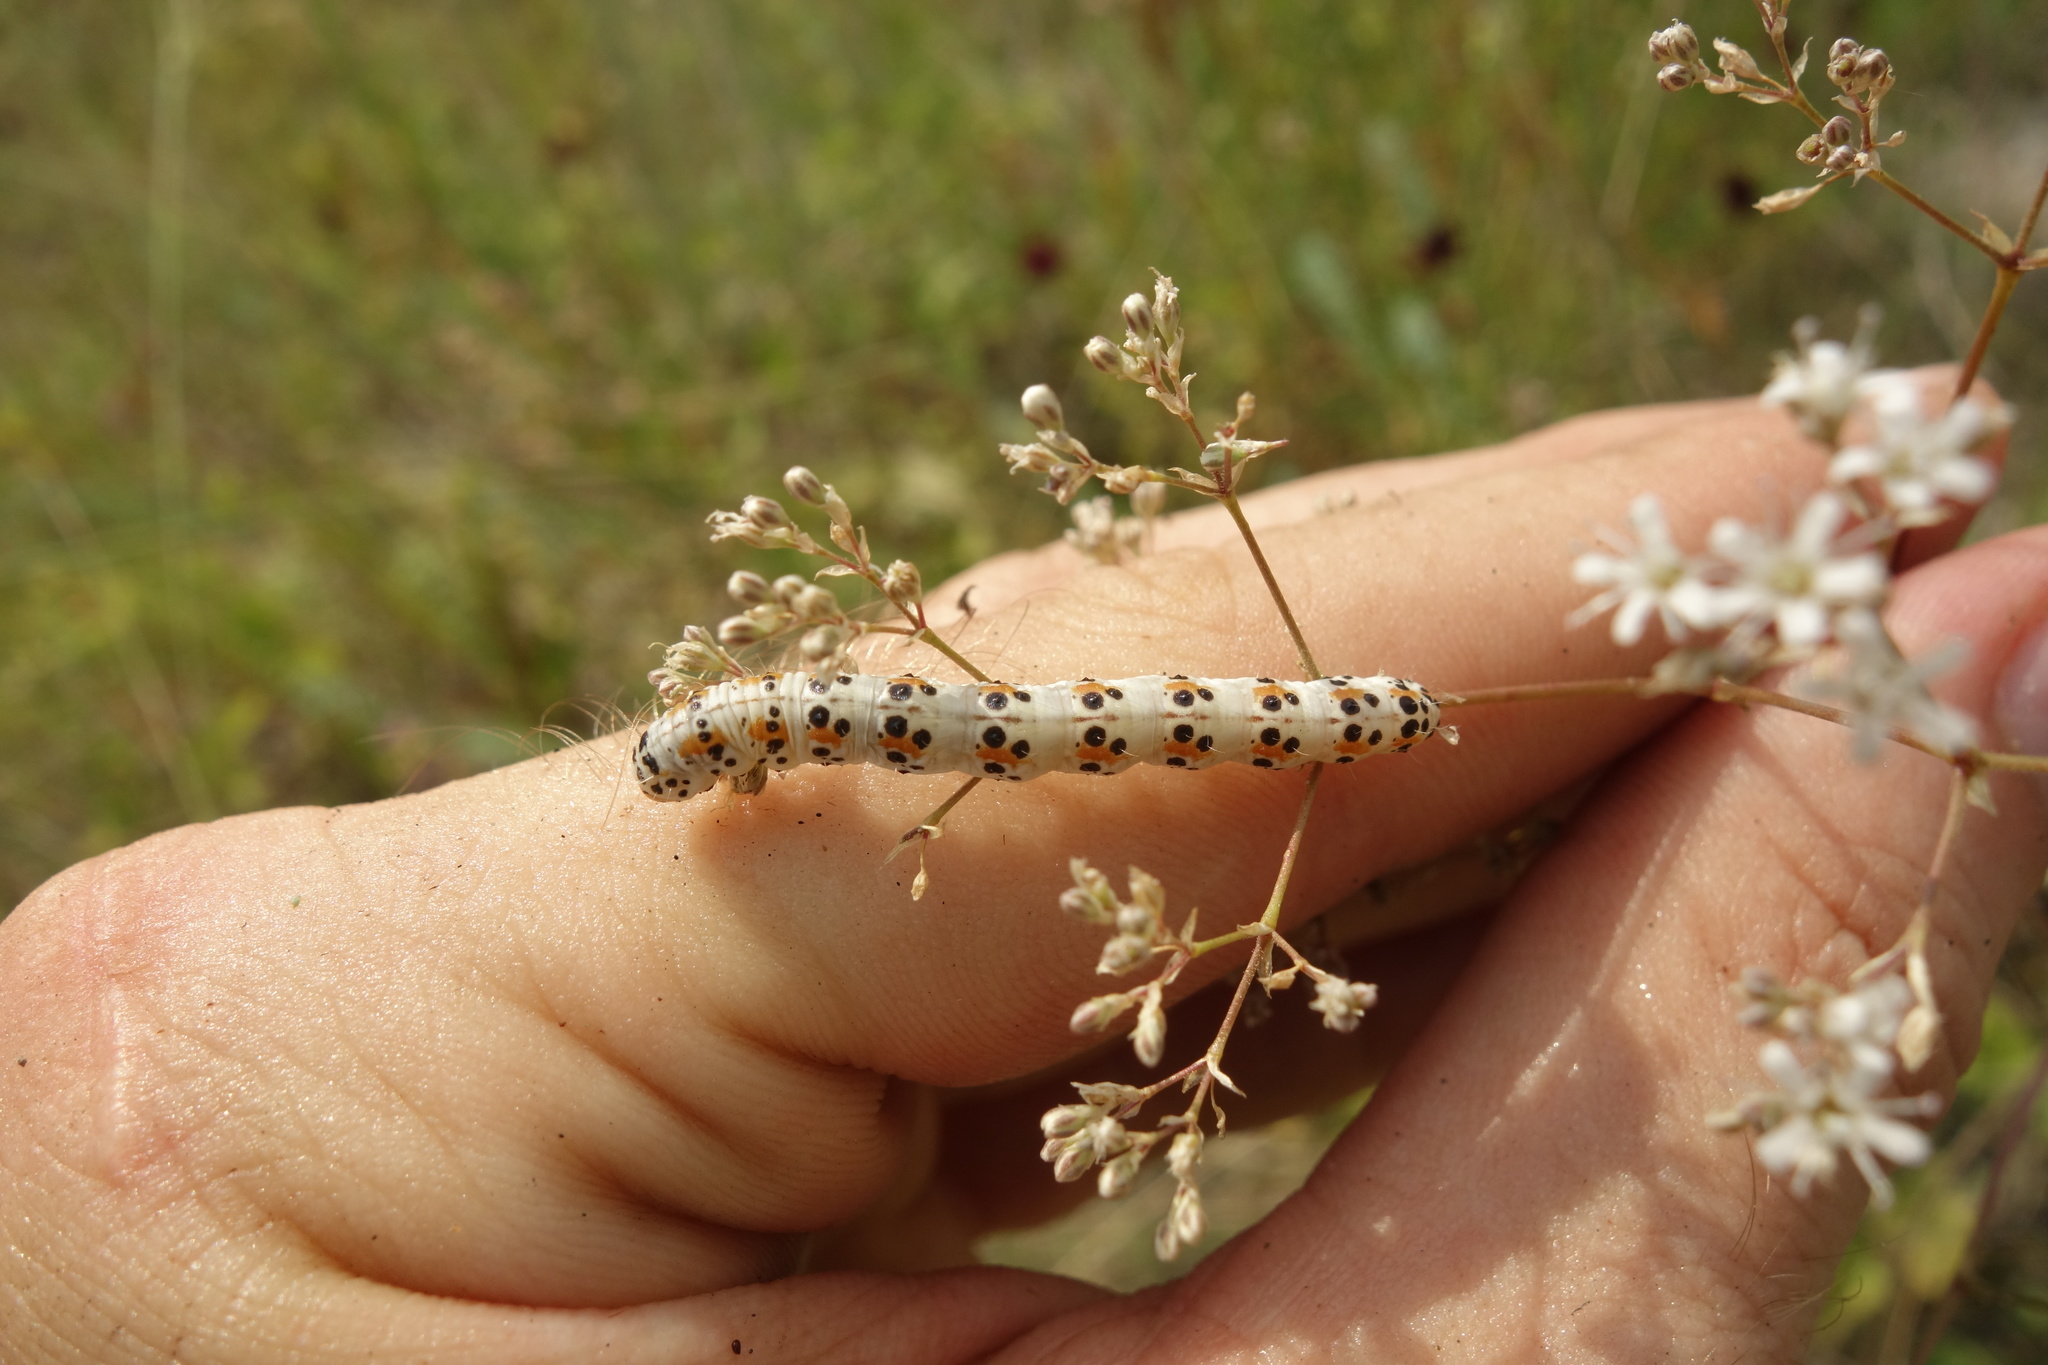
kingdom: Animalia
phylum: Arthropoda
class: Insecta
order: Lepidoptera
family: Noctuidae
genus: Heliothis
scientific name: Heliothis incarnata
